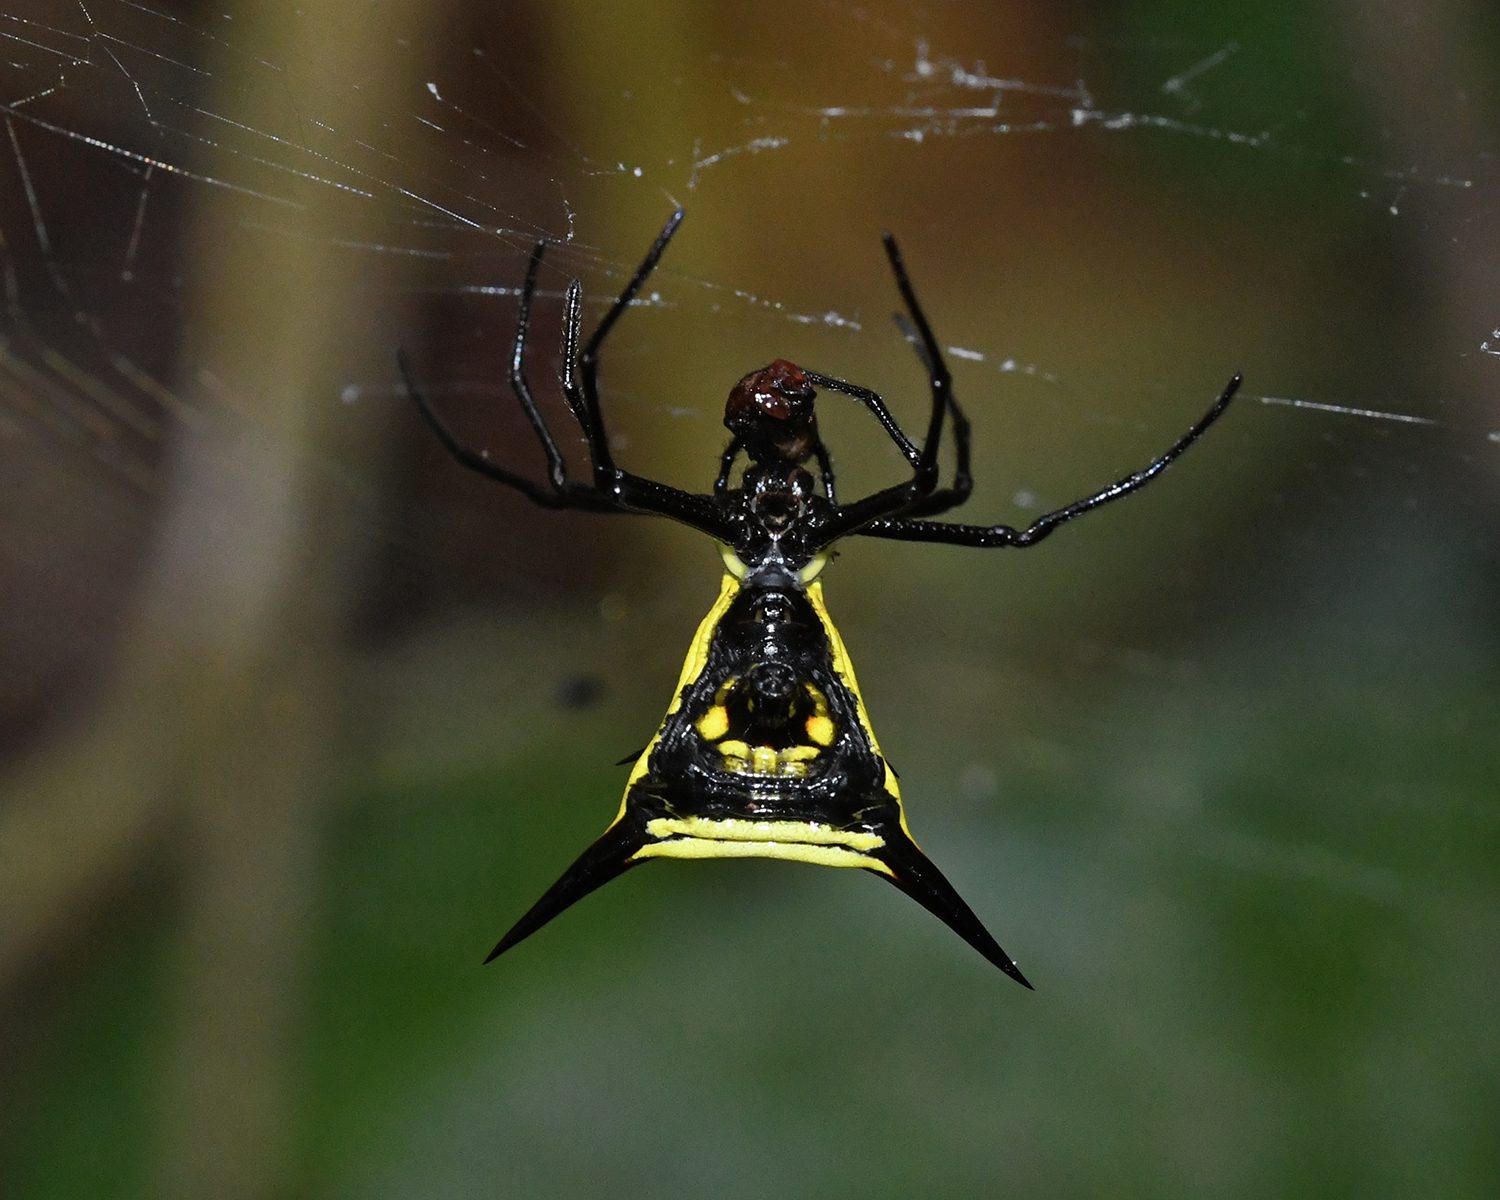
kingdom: Animalia
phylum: Arthropoda
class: Arachnida
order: Araneae
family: Araneidae
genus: Micrathena
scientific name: Micrathena schreibersi
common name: Orb weavers
